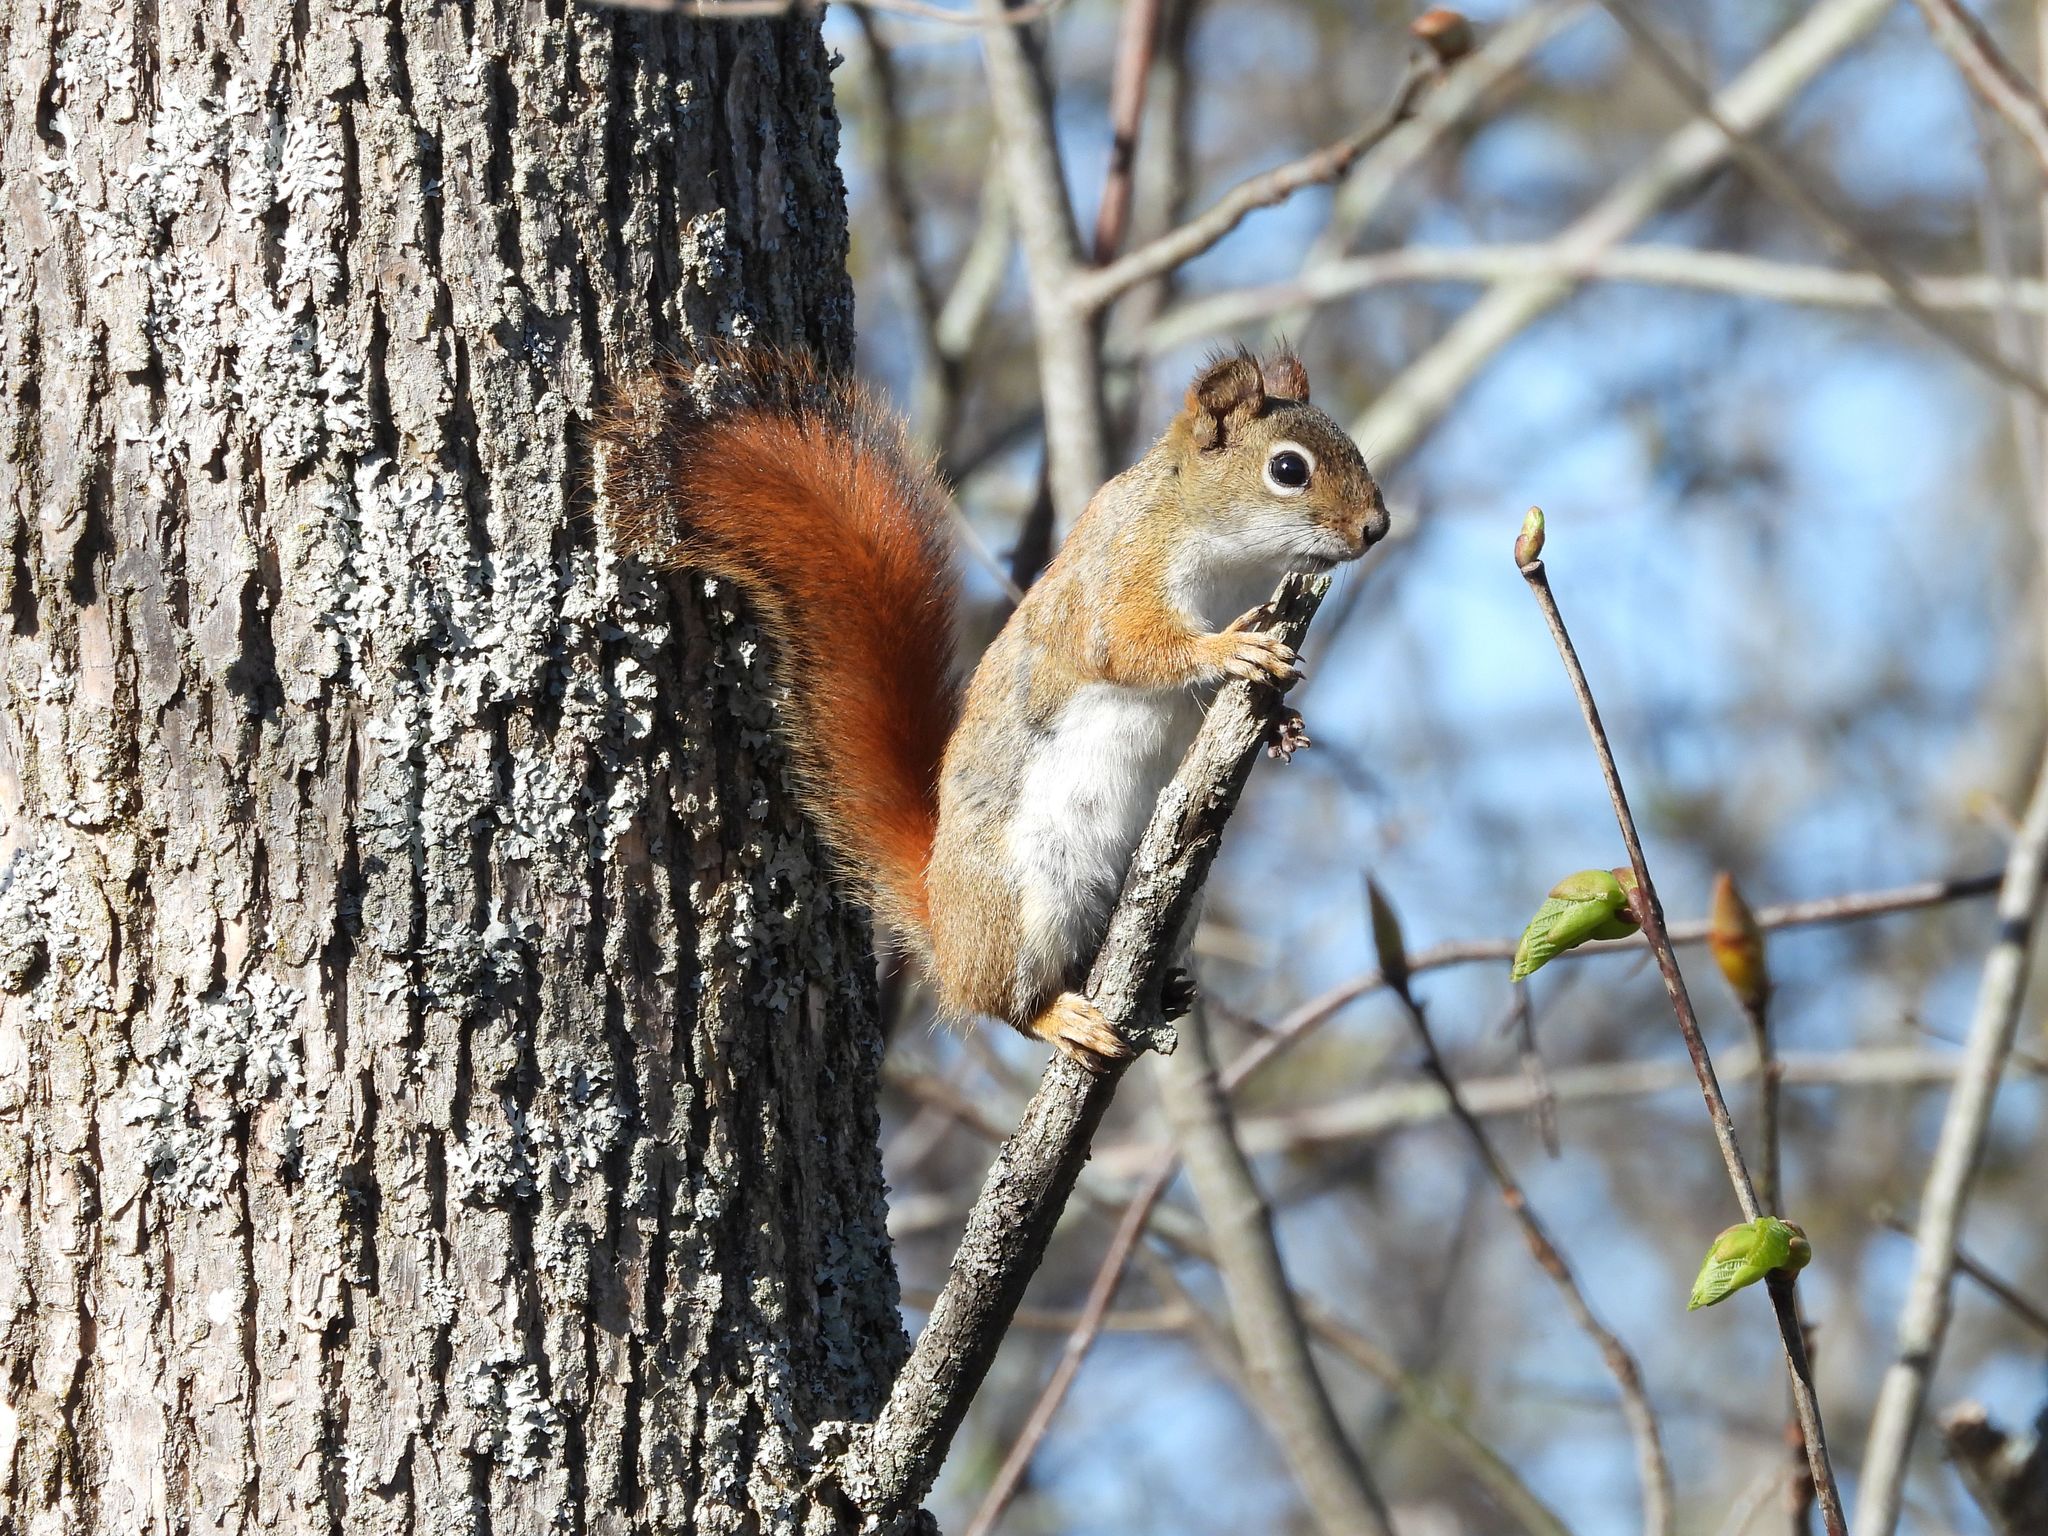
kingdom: Animalia
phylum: Chordata
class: Mammalia
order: Rodentia
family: Sciuridae
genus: Tamiasciurus
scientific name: Tamiasciurus hudsonicus
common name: Red squirrel
